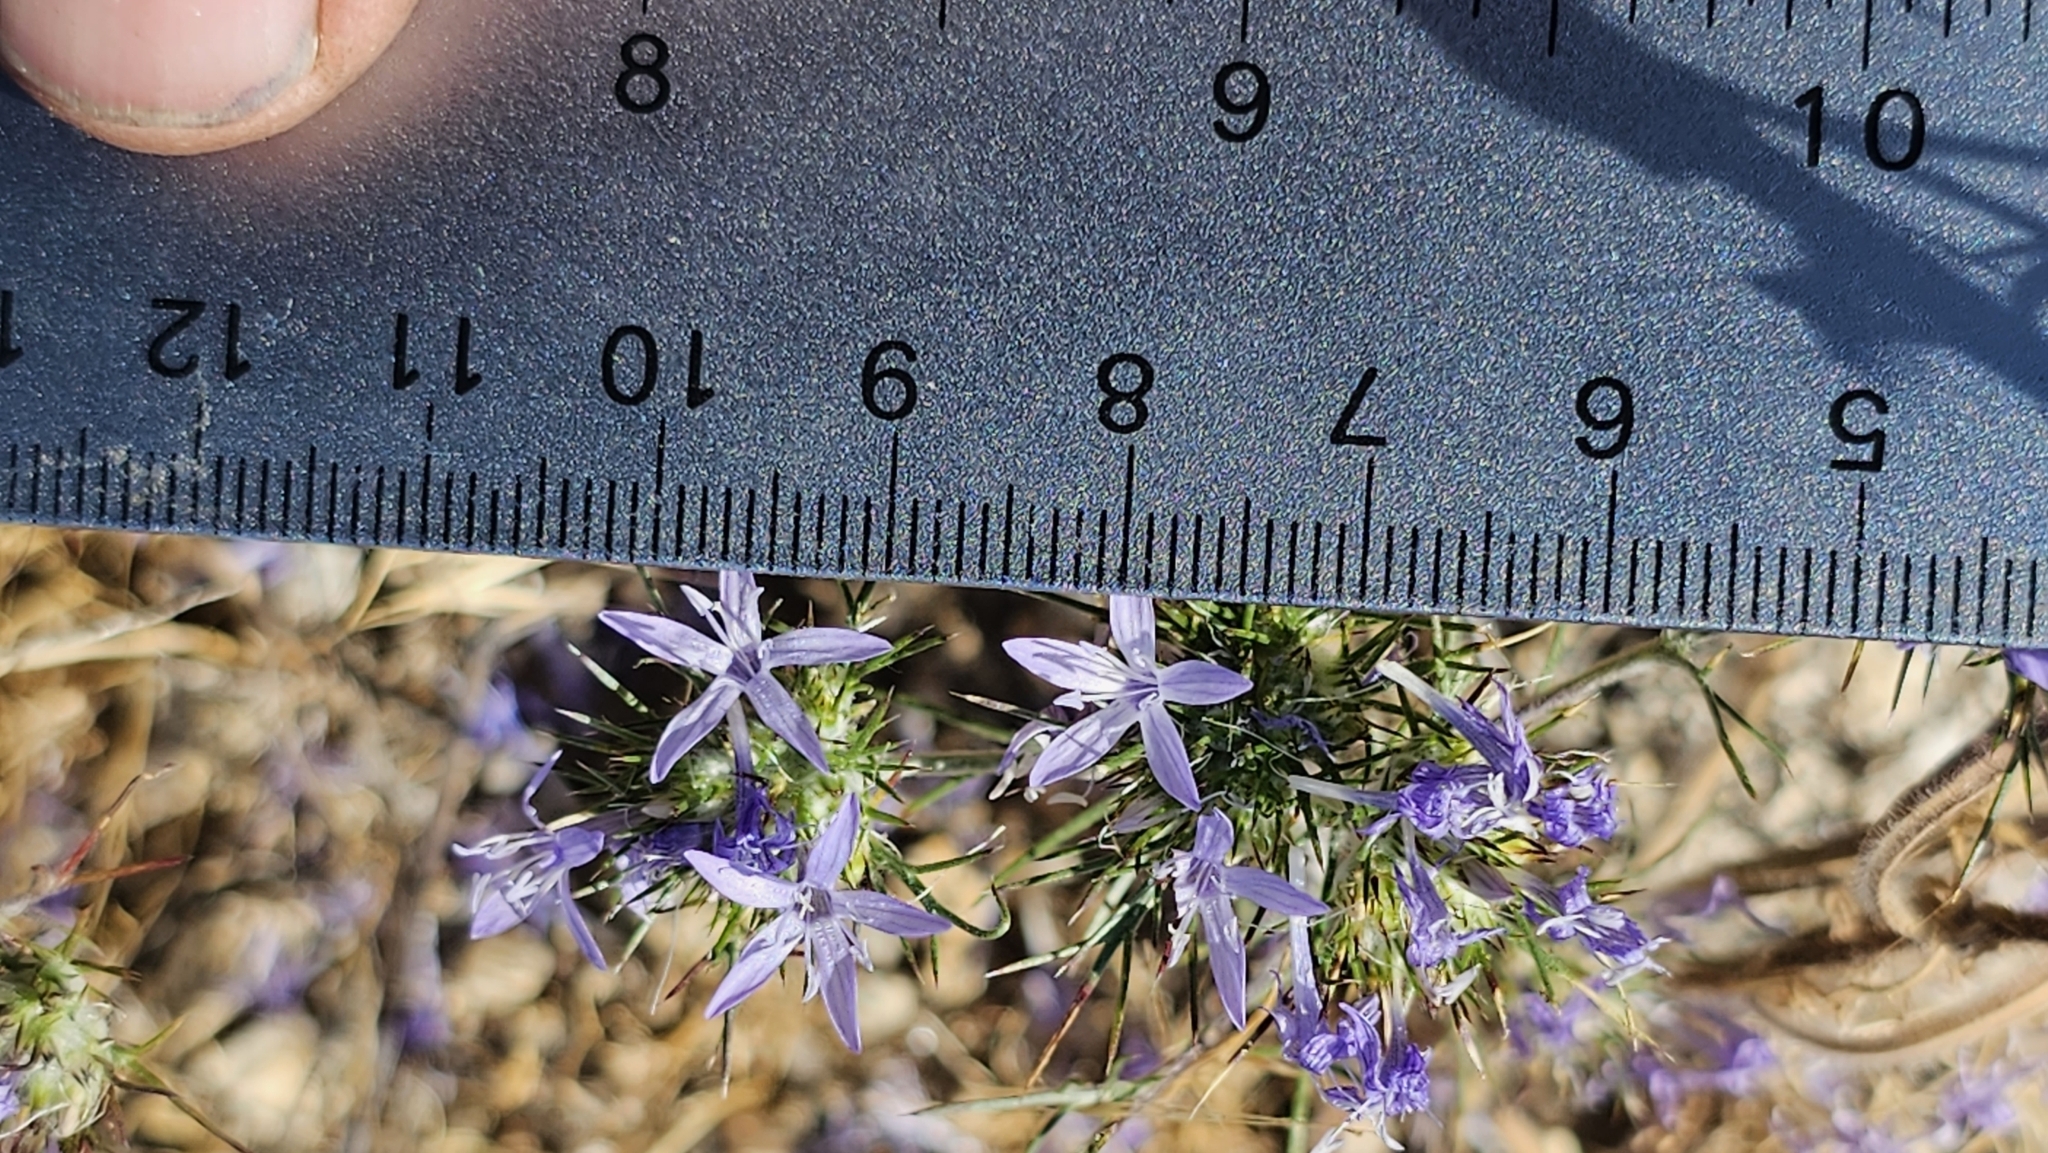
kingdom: Plantae
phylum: Tracheophyta
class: Magnoliopsida
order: Ericales
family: Polemoniaceae
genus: Eriastrum
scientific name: Eriastrum pluriflorum
